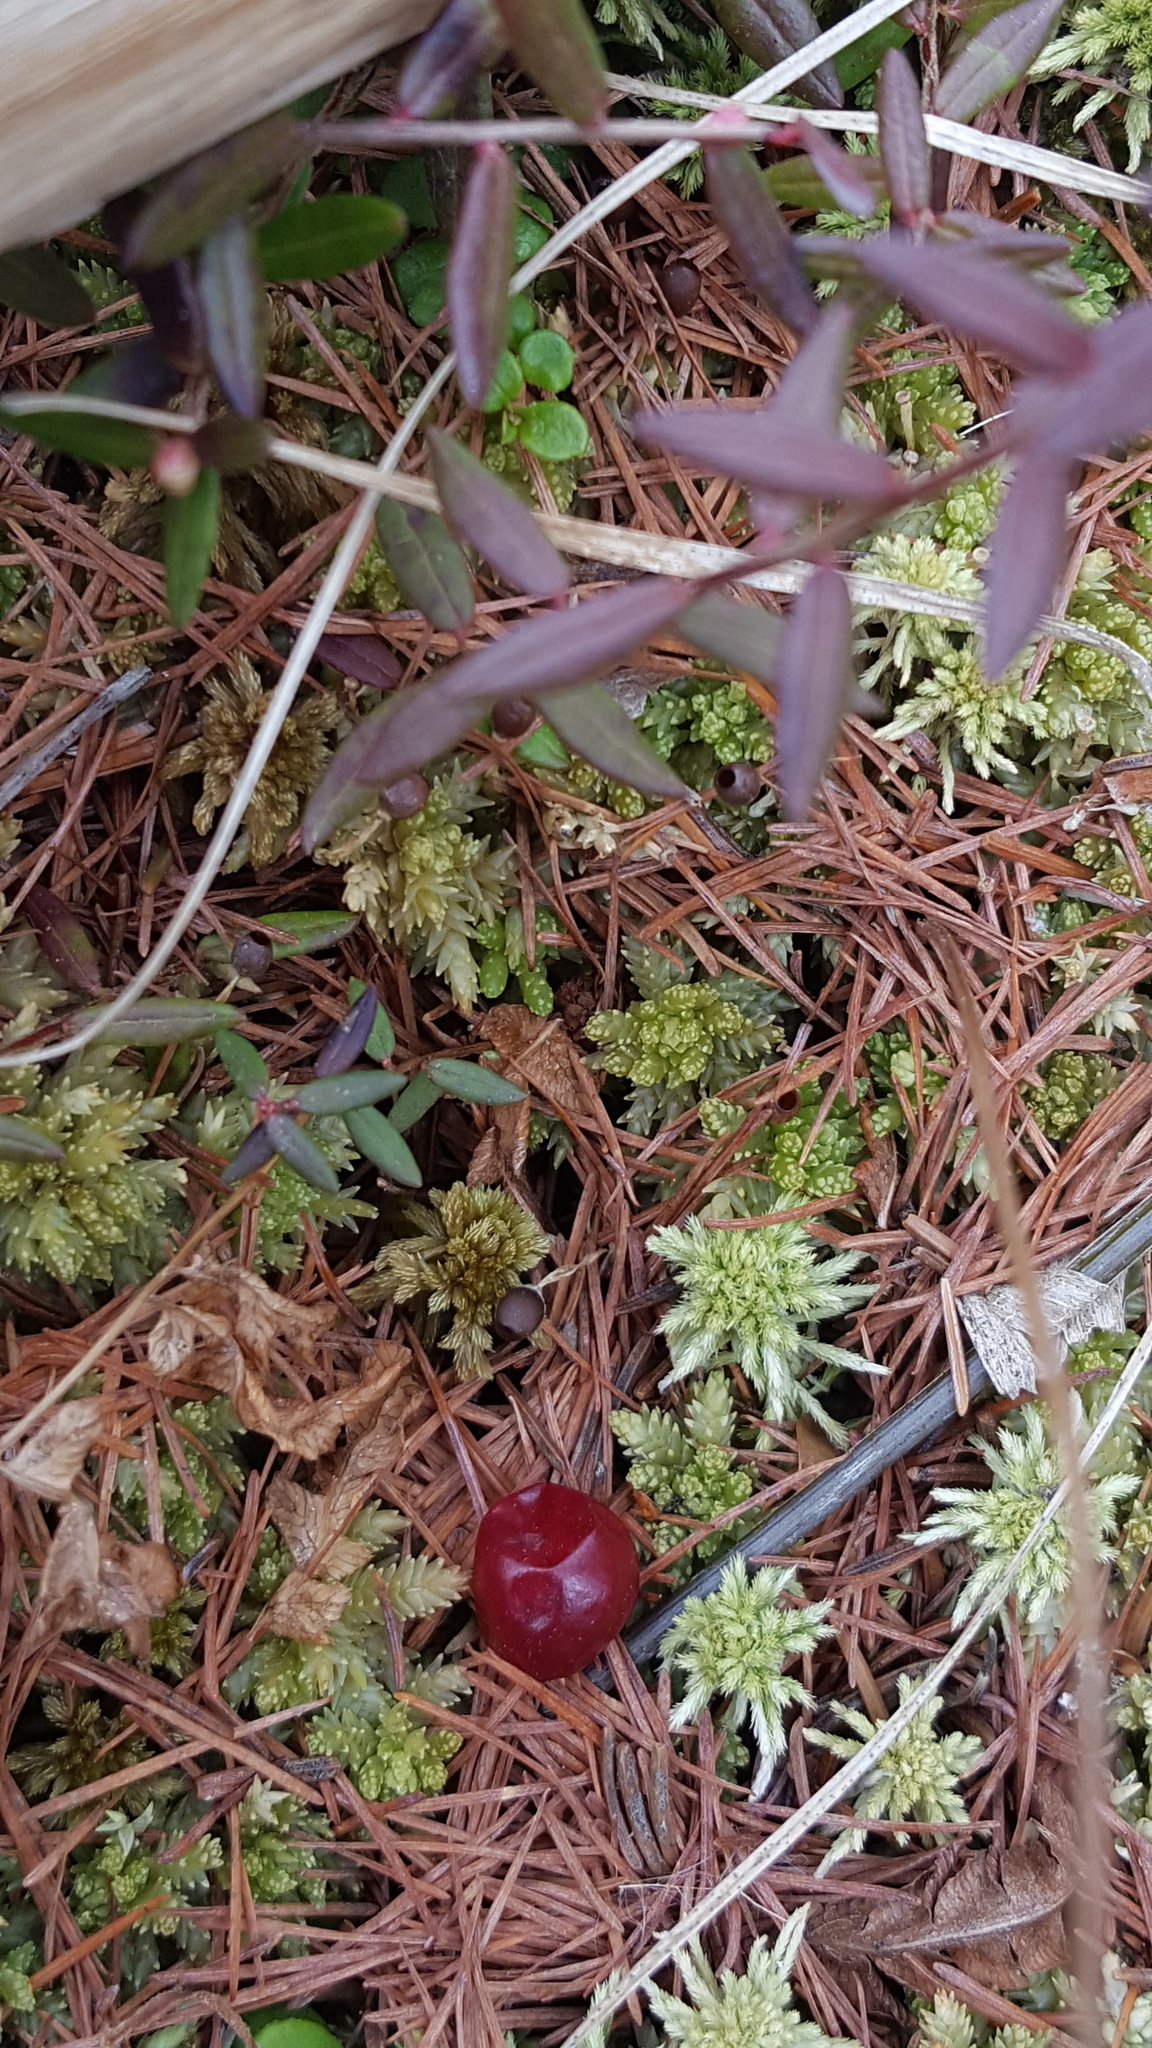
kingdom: Plantae
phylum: Tracheophyta
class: Magnoliopsida
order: Ericales
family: Ericaceae
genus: Vaccinium
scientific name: Vaccinium oxycoccos
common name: Cranberry
